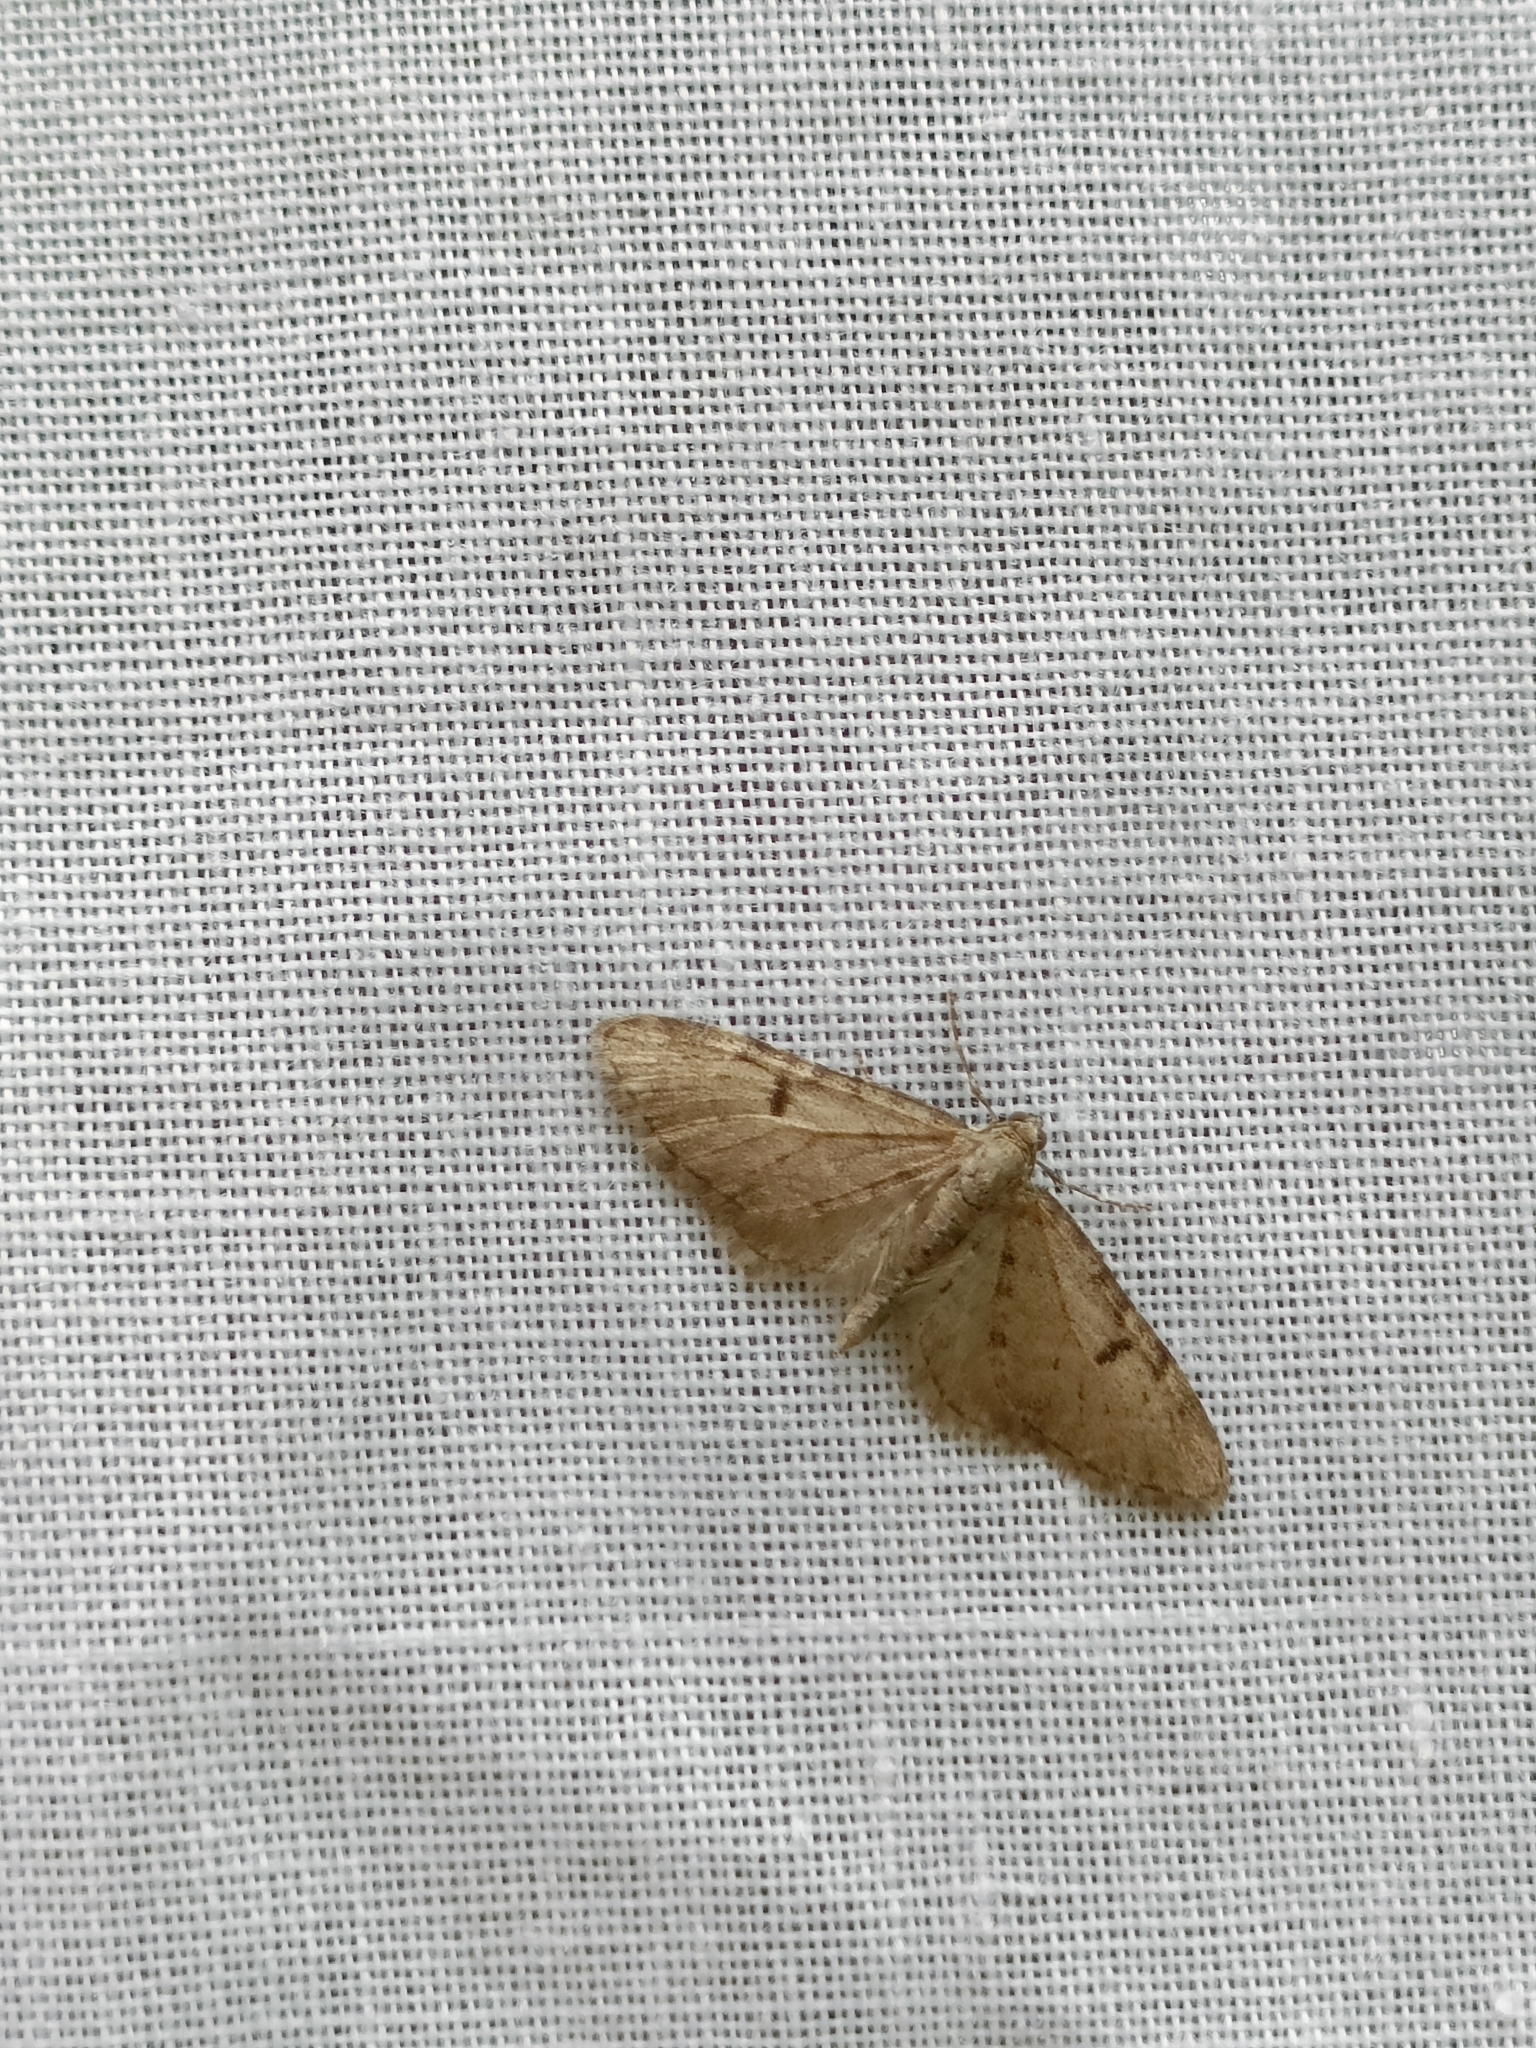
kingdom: Animalia
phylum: Arthropoda
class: Insecta
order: Lepidoptera
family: Geometridae
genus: Eupithecia
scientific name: Eupithecia indigata
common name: Ochreous pug
